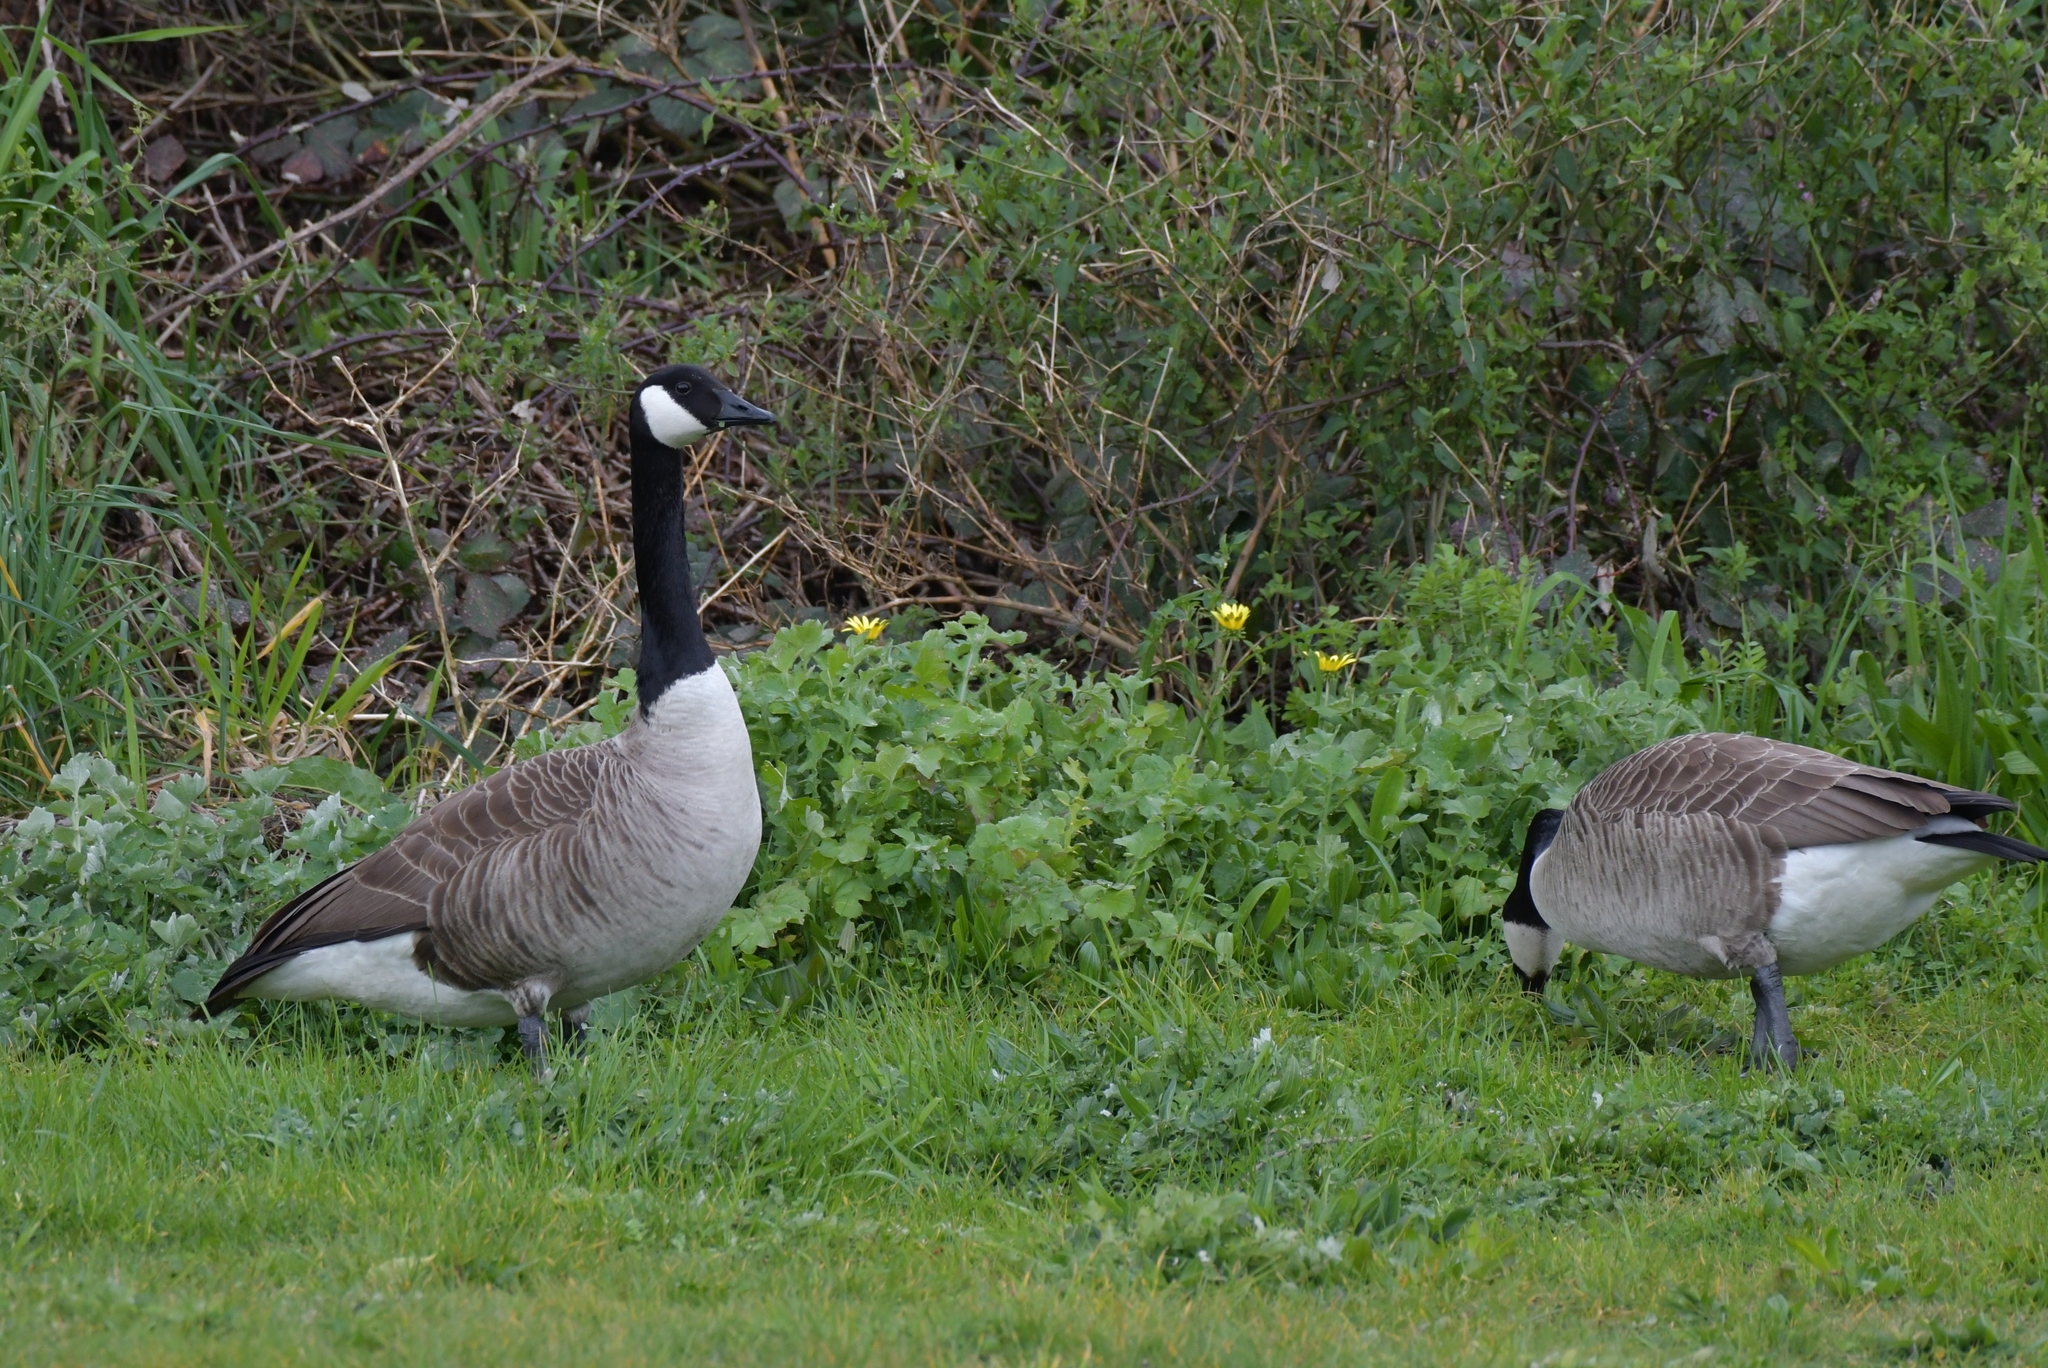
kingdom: Animalia
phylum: Chordata
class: Aves
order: Anseriformes
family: Anatidae
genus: Branta
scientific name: Branta canadensis
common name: Canada goose
